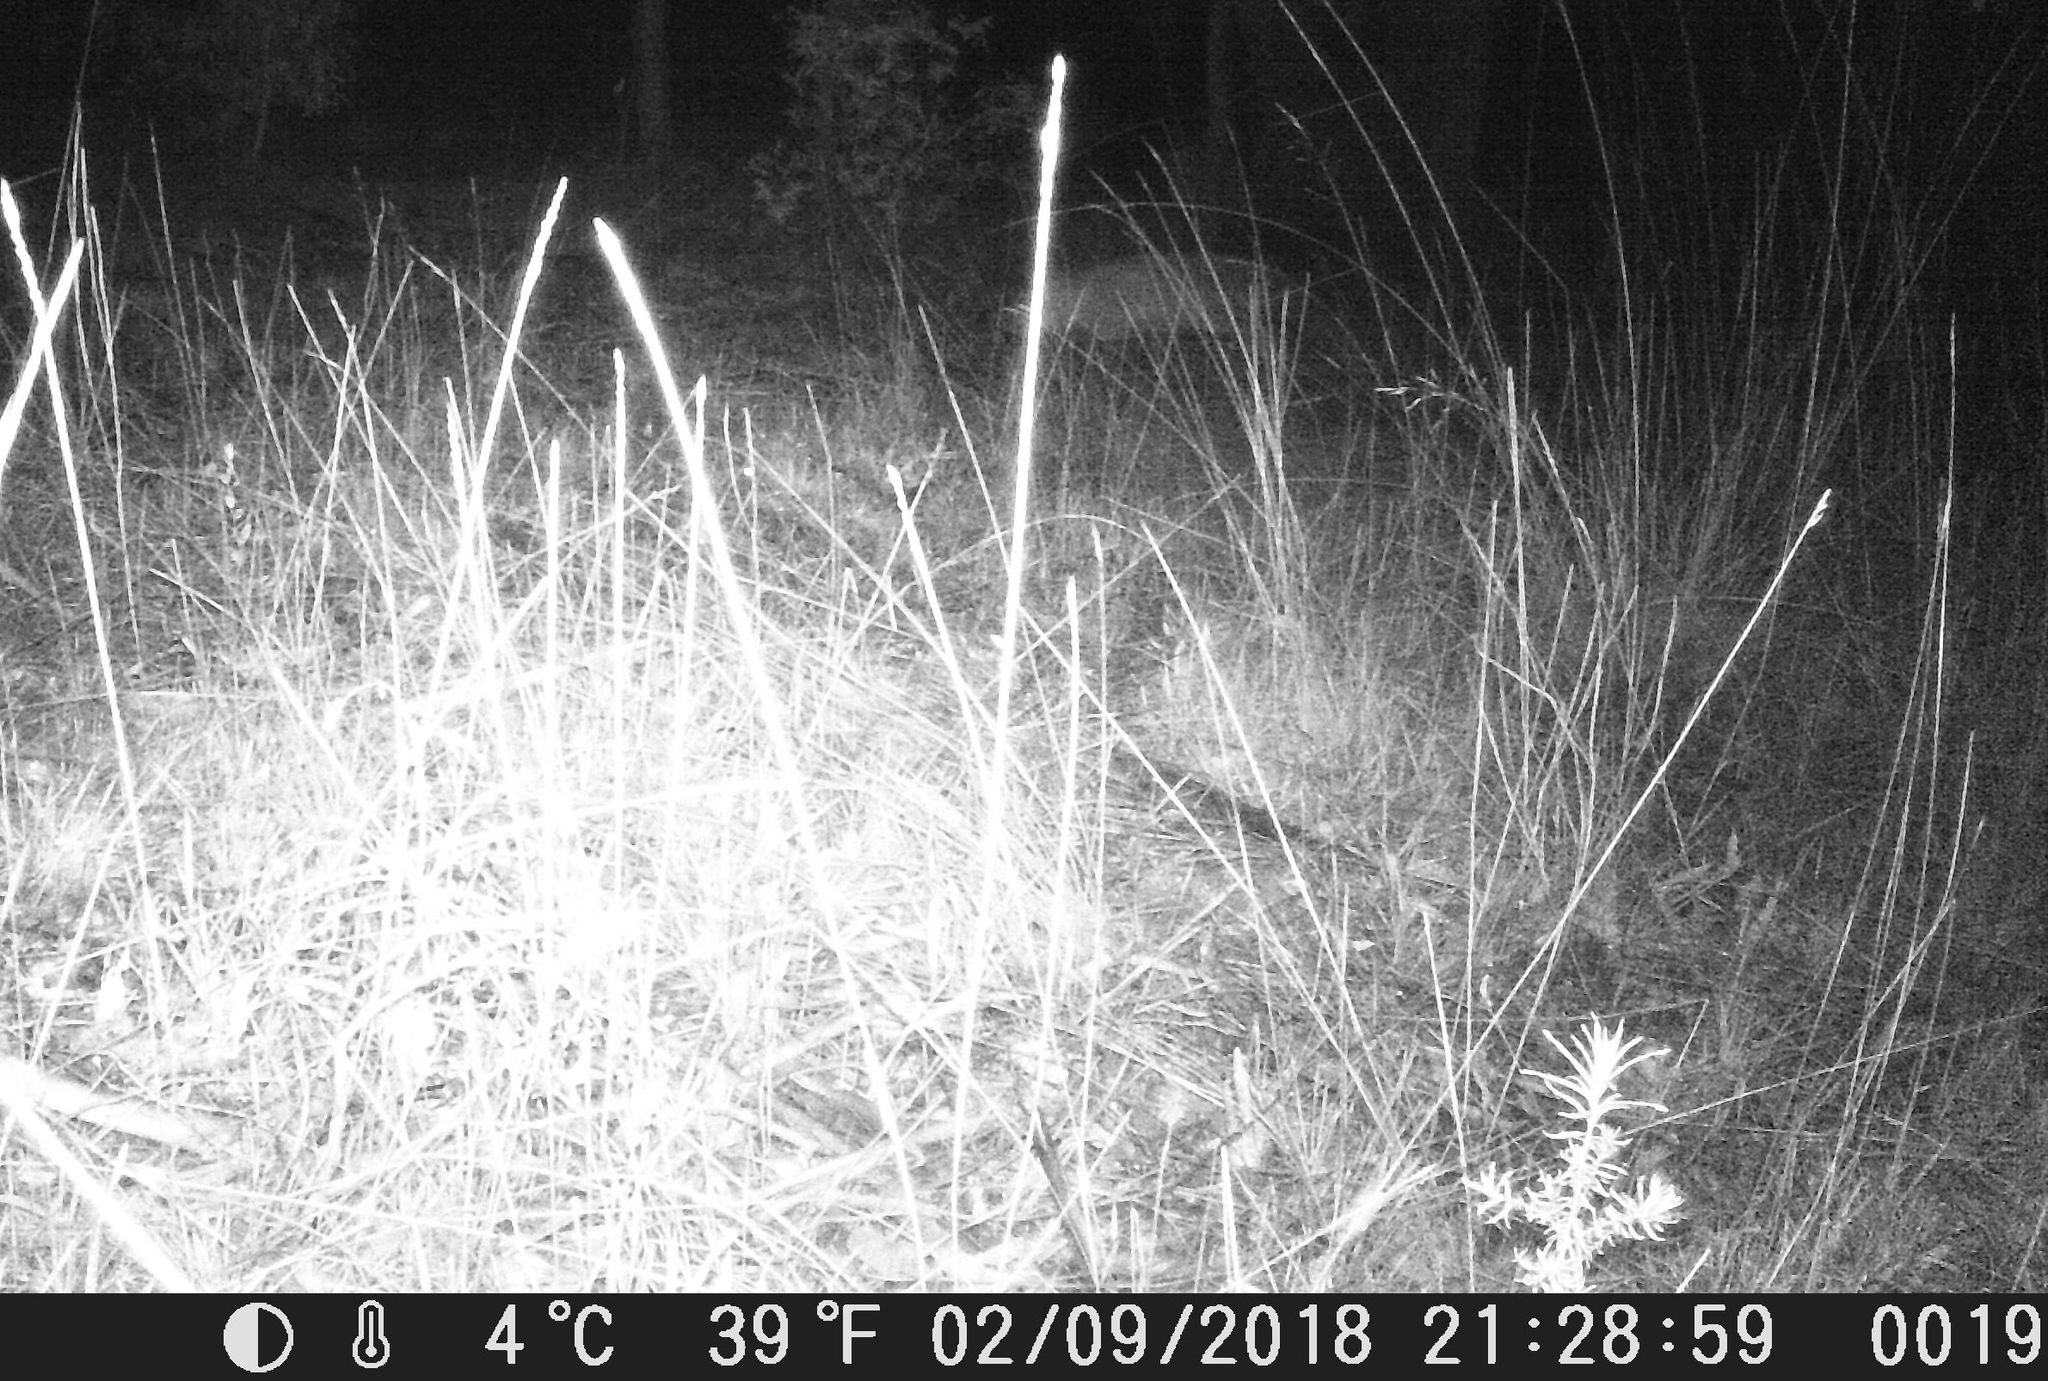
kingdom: Animalia
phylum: Chordata
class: Mammalia
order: Carnivora
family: Canidae
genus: Vulpes
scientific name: Vulpes vulpes
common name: Red fox
